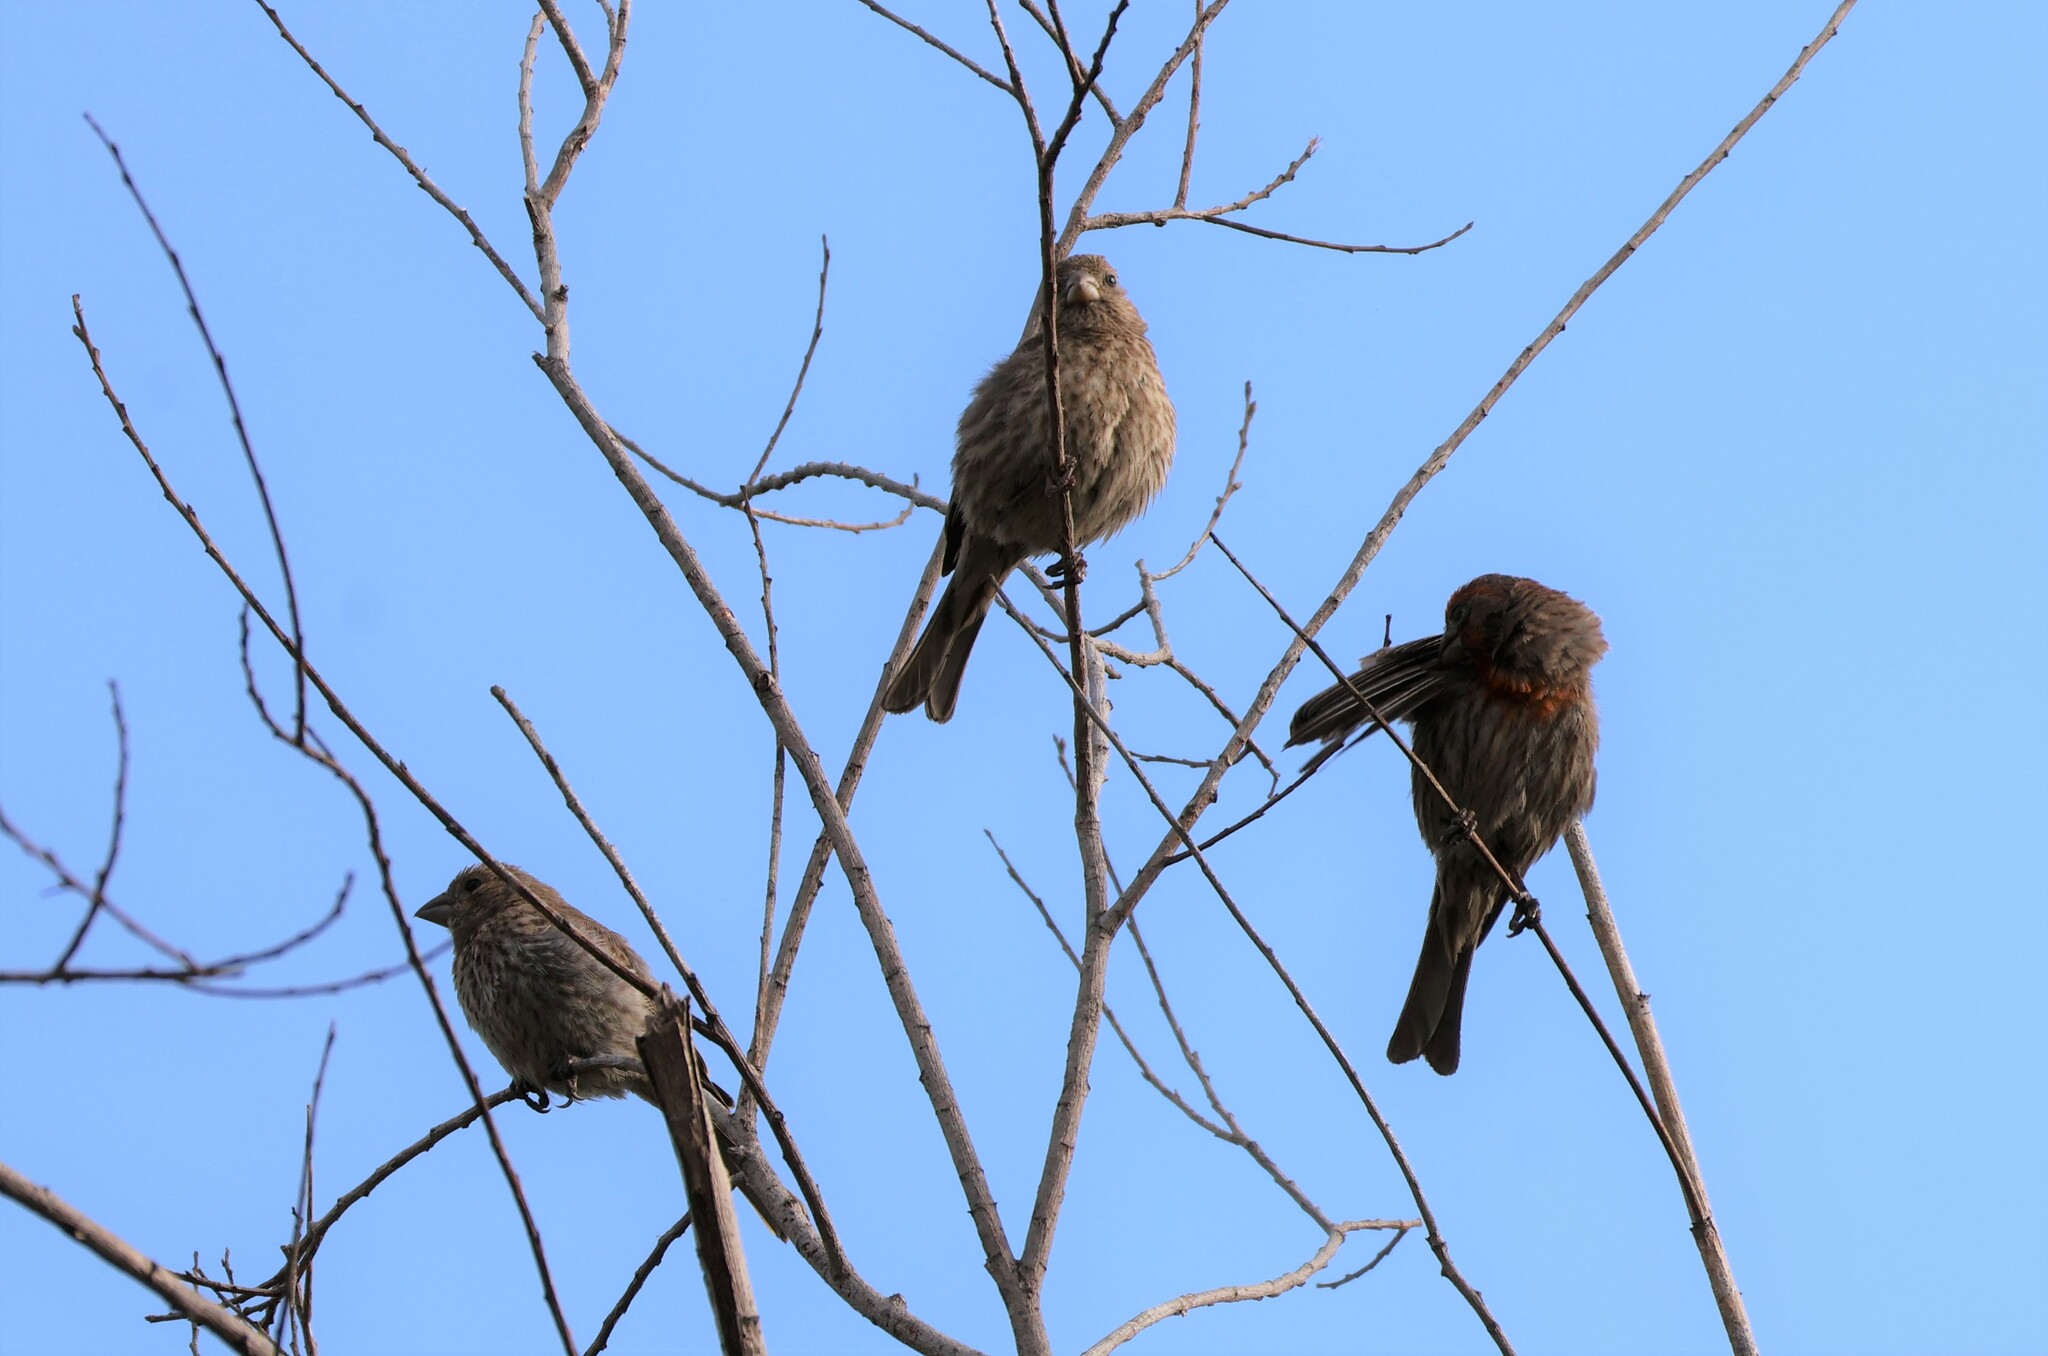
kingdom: Animalia
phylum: Chordata
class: Aves
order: Passeriformes
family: Fringillidae
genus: Haemorhous
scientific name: Haemorhous mexicanus
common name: House finch
